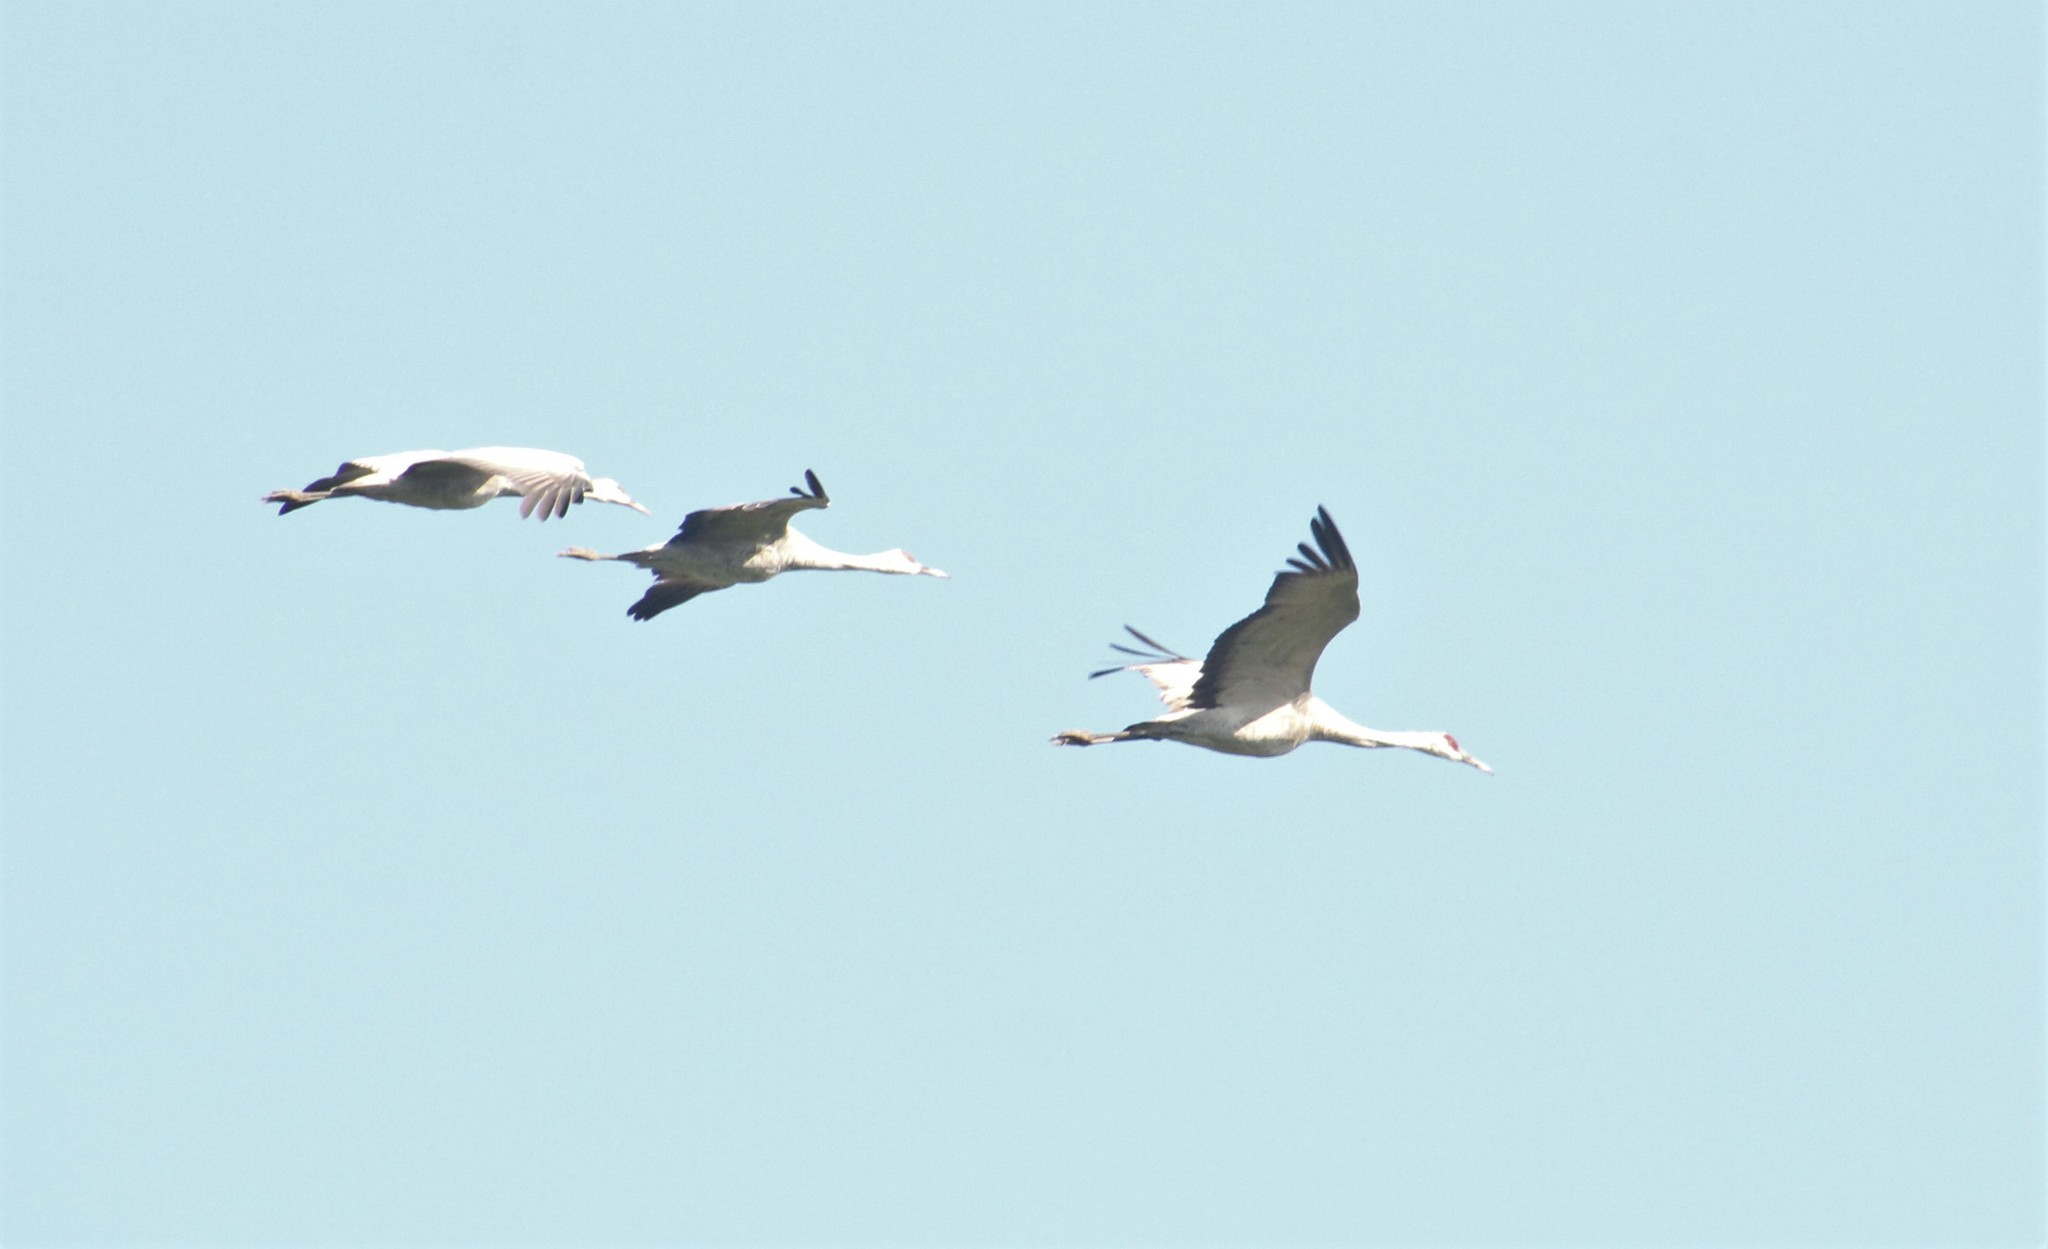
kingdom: Animalia
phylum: Chordata
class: Aves
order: Gruiformes
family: Gruidae
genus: Grus
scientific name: Grus canadensis
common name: Sandhill crane
